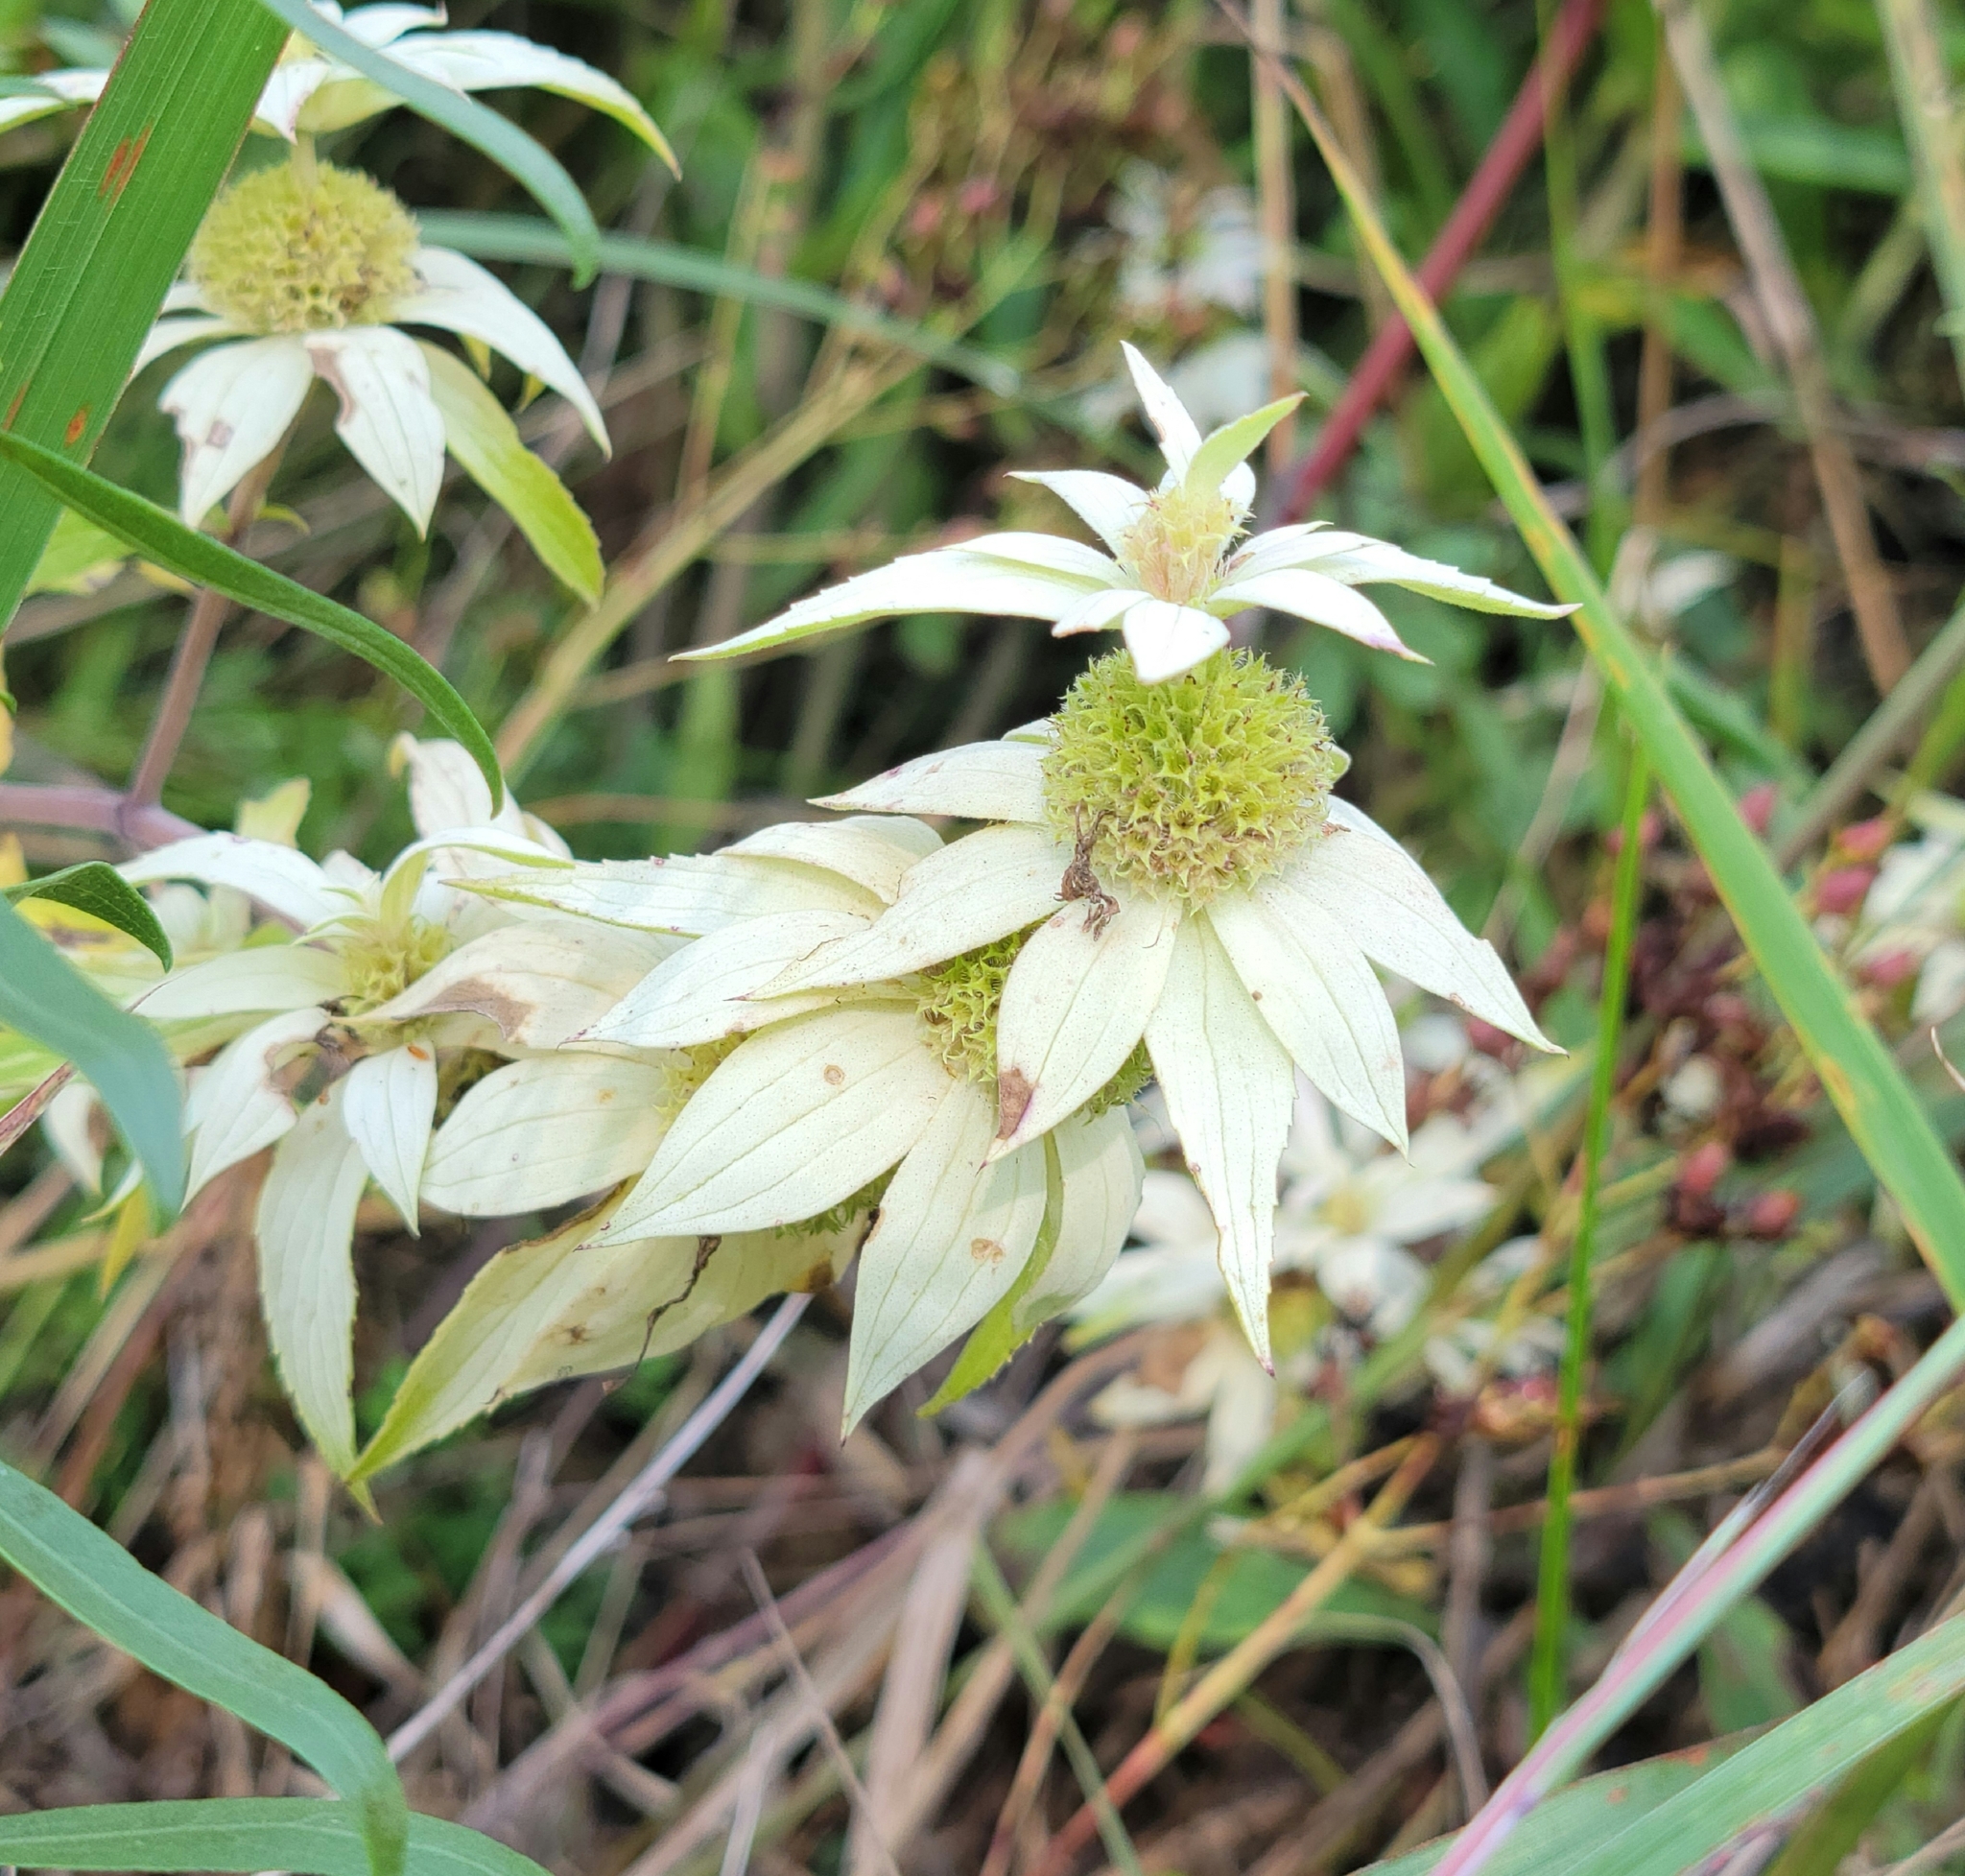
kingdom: Plantae
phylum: Tracheophyta
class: Magnoliopsida
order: Lamiales
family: Lamiaceae
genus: Monarda
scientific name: Monarda punctata
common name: Dotted monarda
